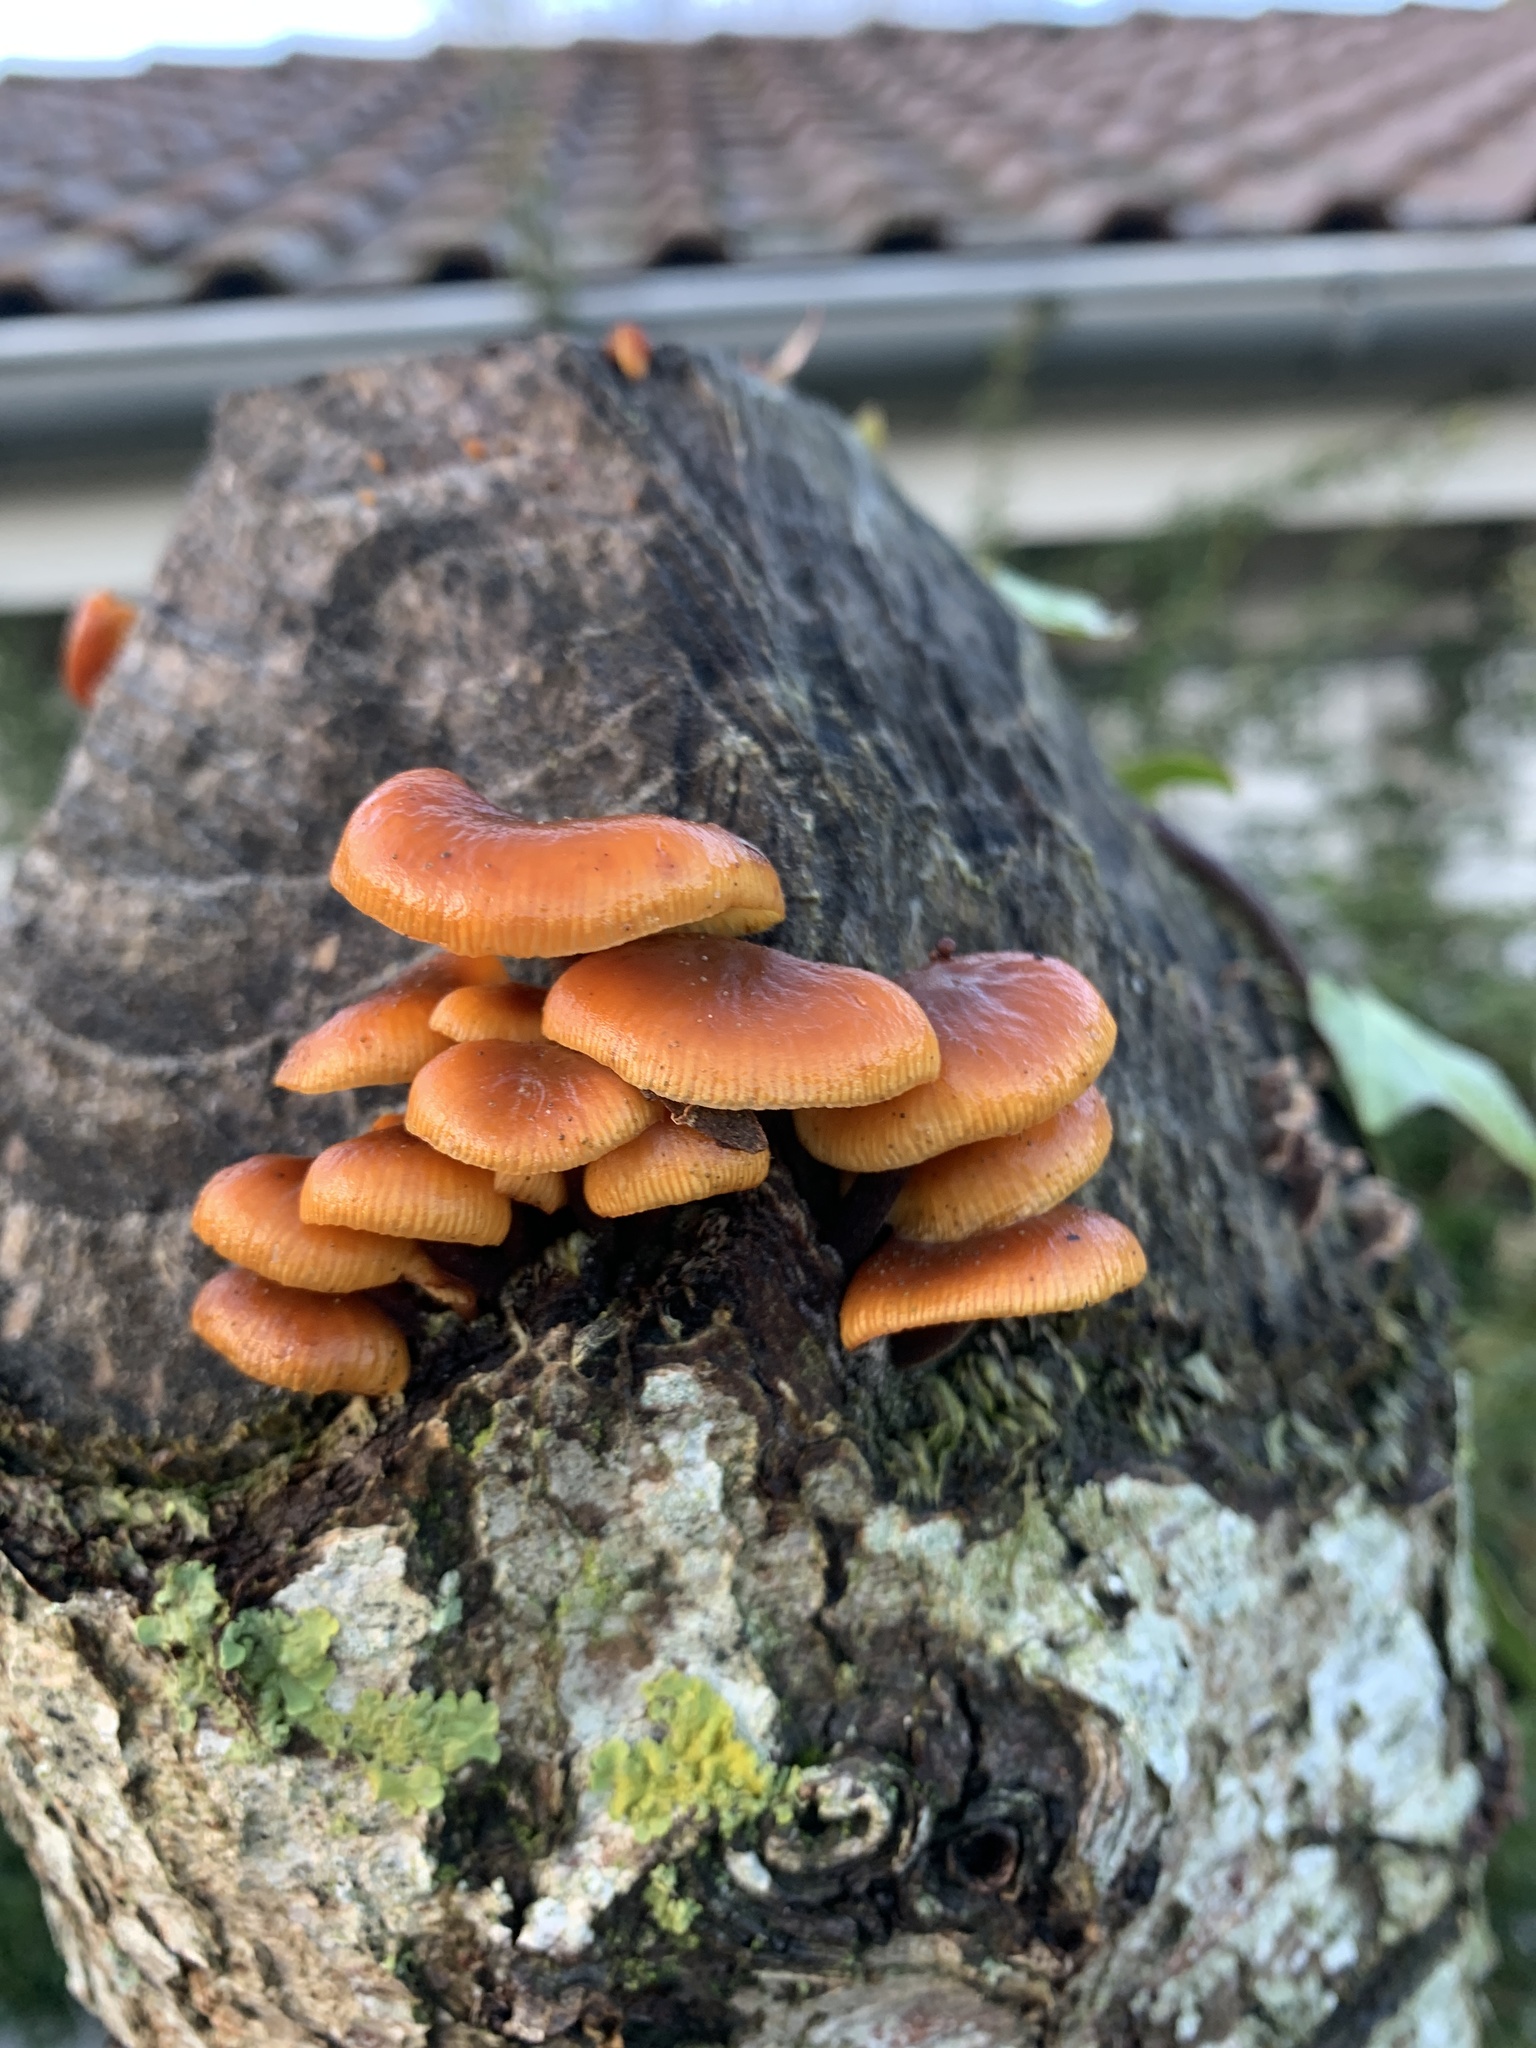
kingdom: Fungi
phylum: Basidiomycota
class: Agaricomycetes
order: Agaricales
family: Physalacriaceae
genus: Flammulina
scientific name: Flammulina
